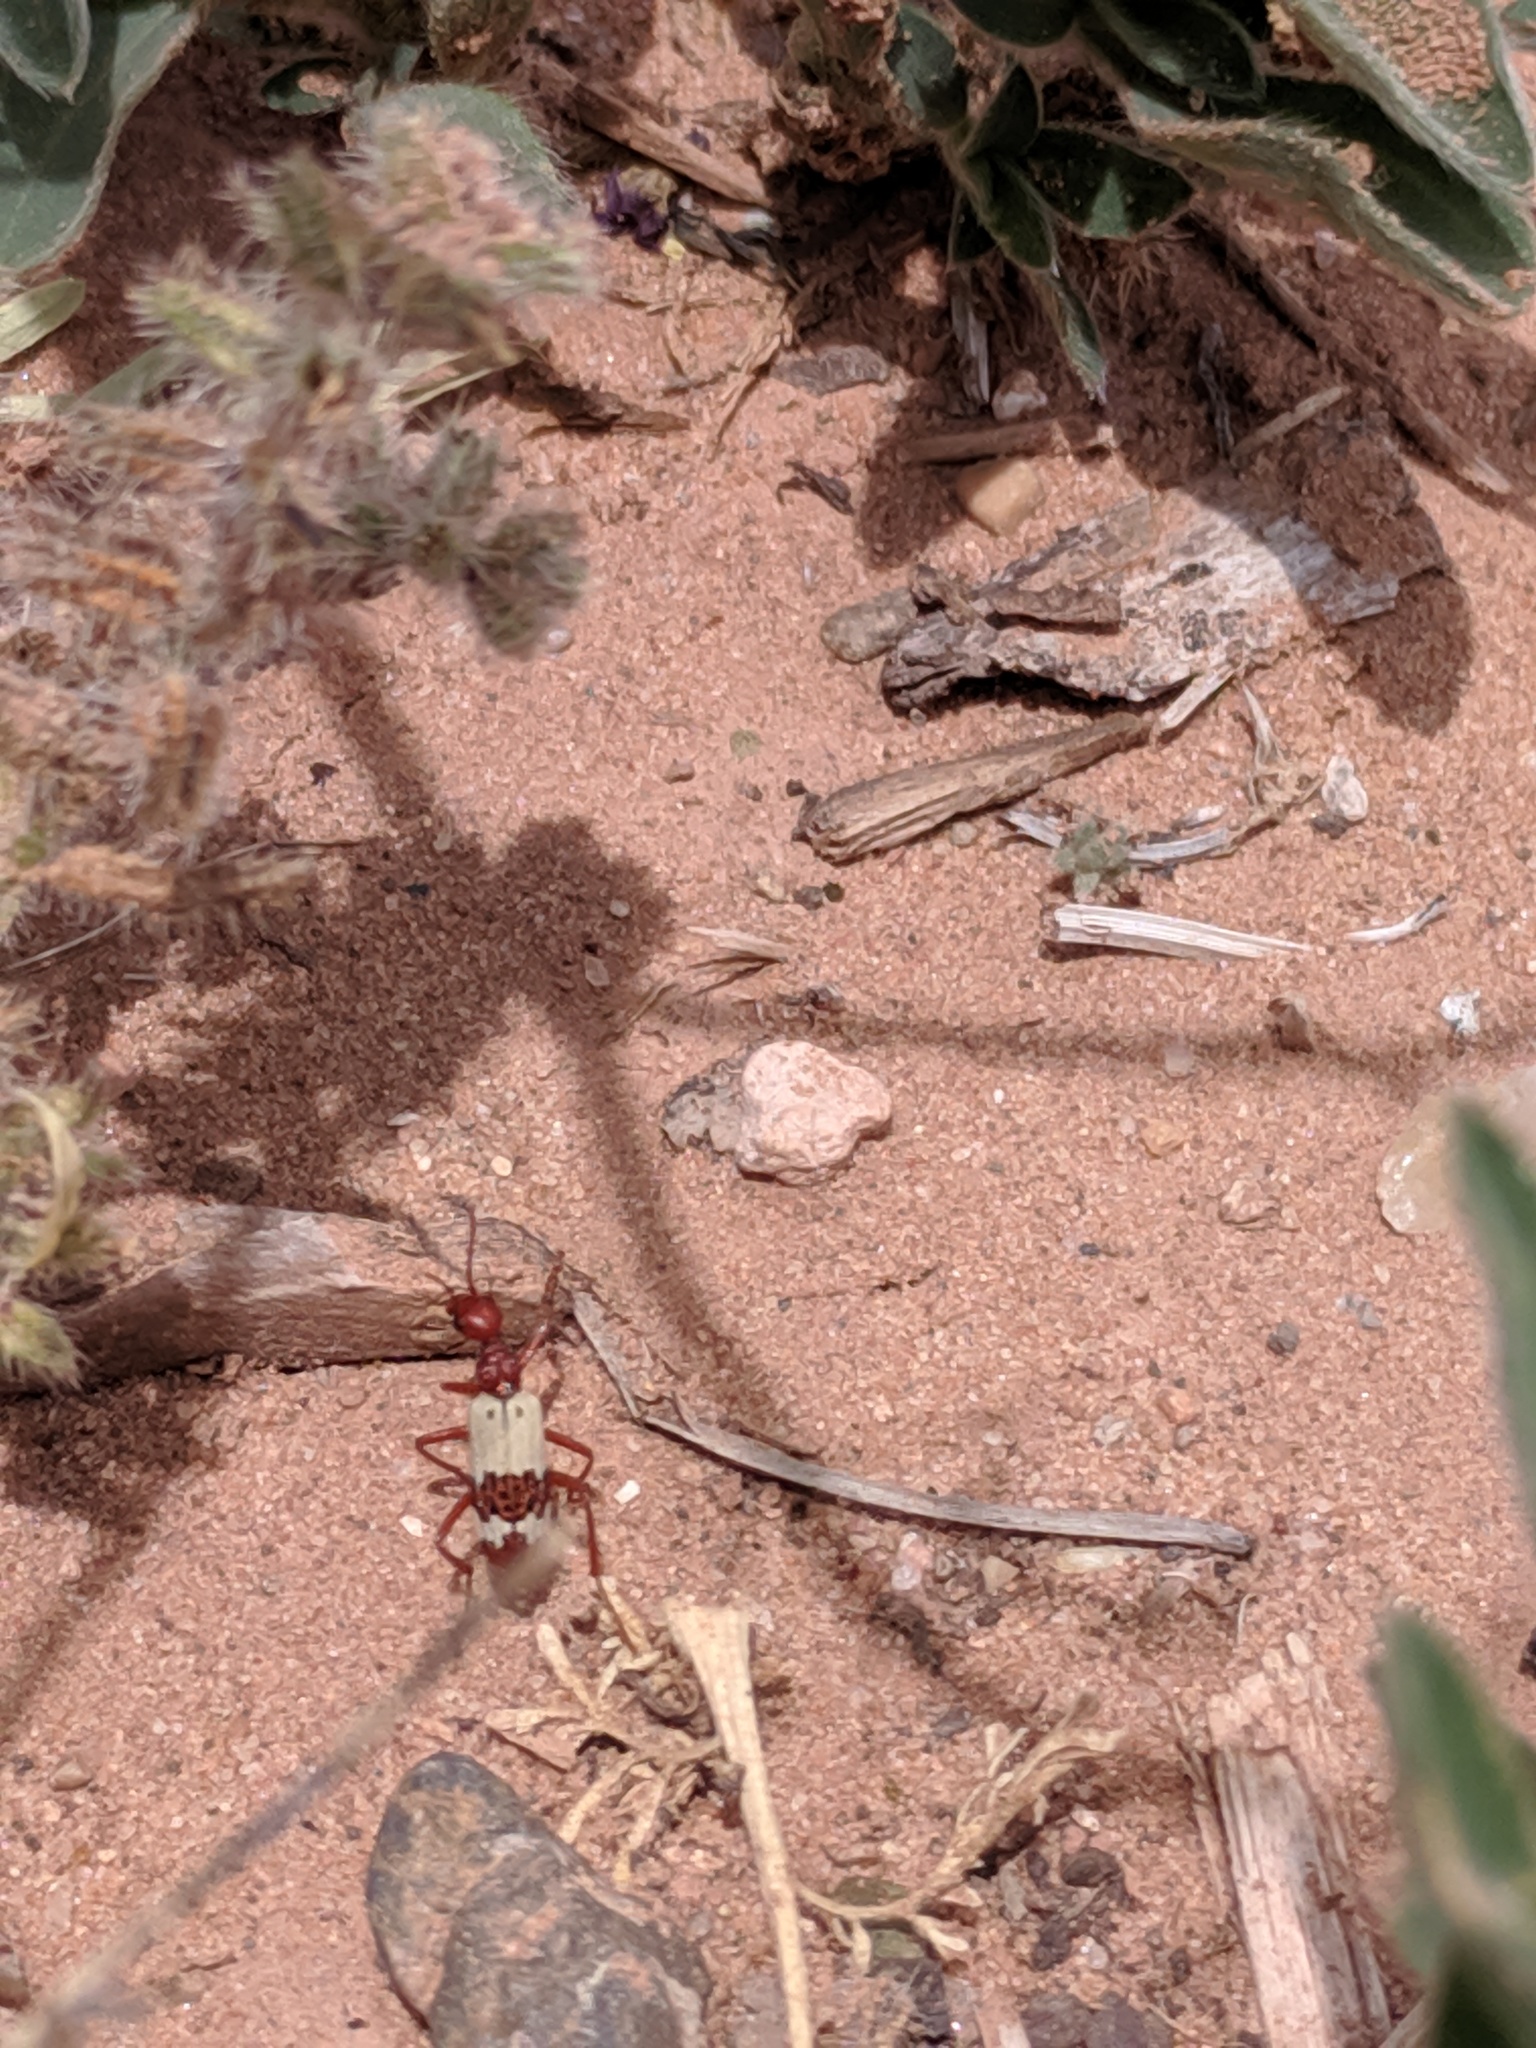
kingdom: Animalia
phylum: Arthropoda
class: Insecta
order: Coleoptera
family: Meloidae
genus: Pleuropasta
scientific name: Pleuropasta reticulata
